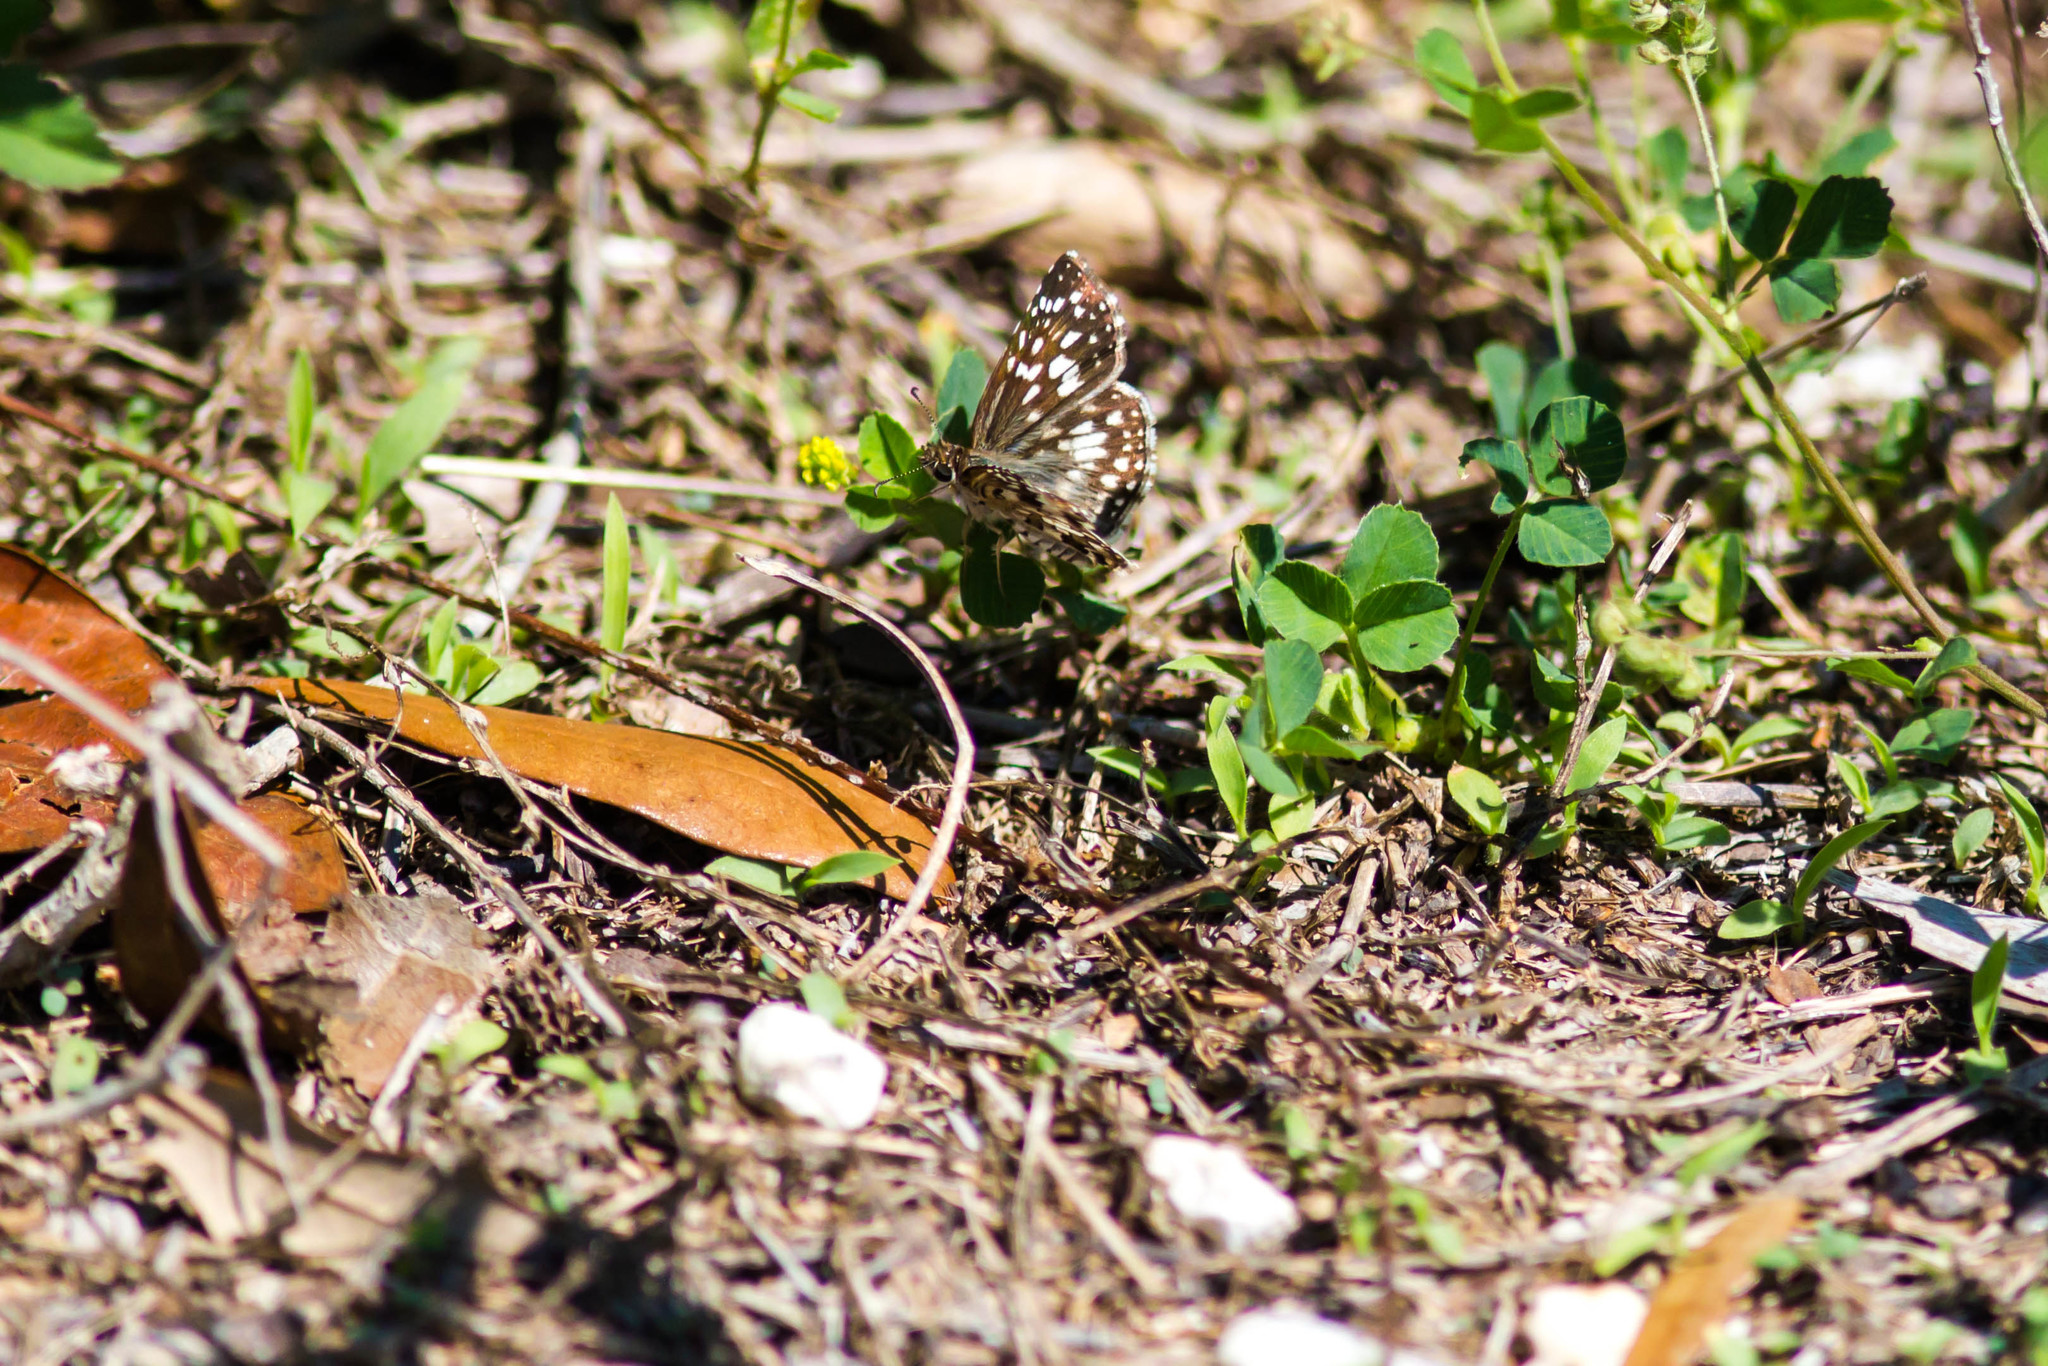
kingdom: Animalia
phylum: Arthropoda
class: Insecta
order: Lepidoptera
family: Hesperiidae
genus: Pyrgus
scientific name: Pyrgus oileus
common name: Tropical checkered-skipper
